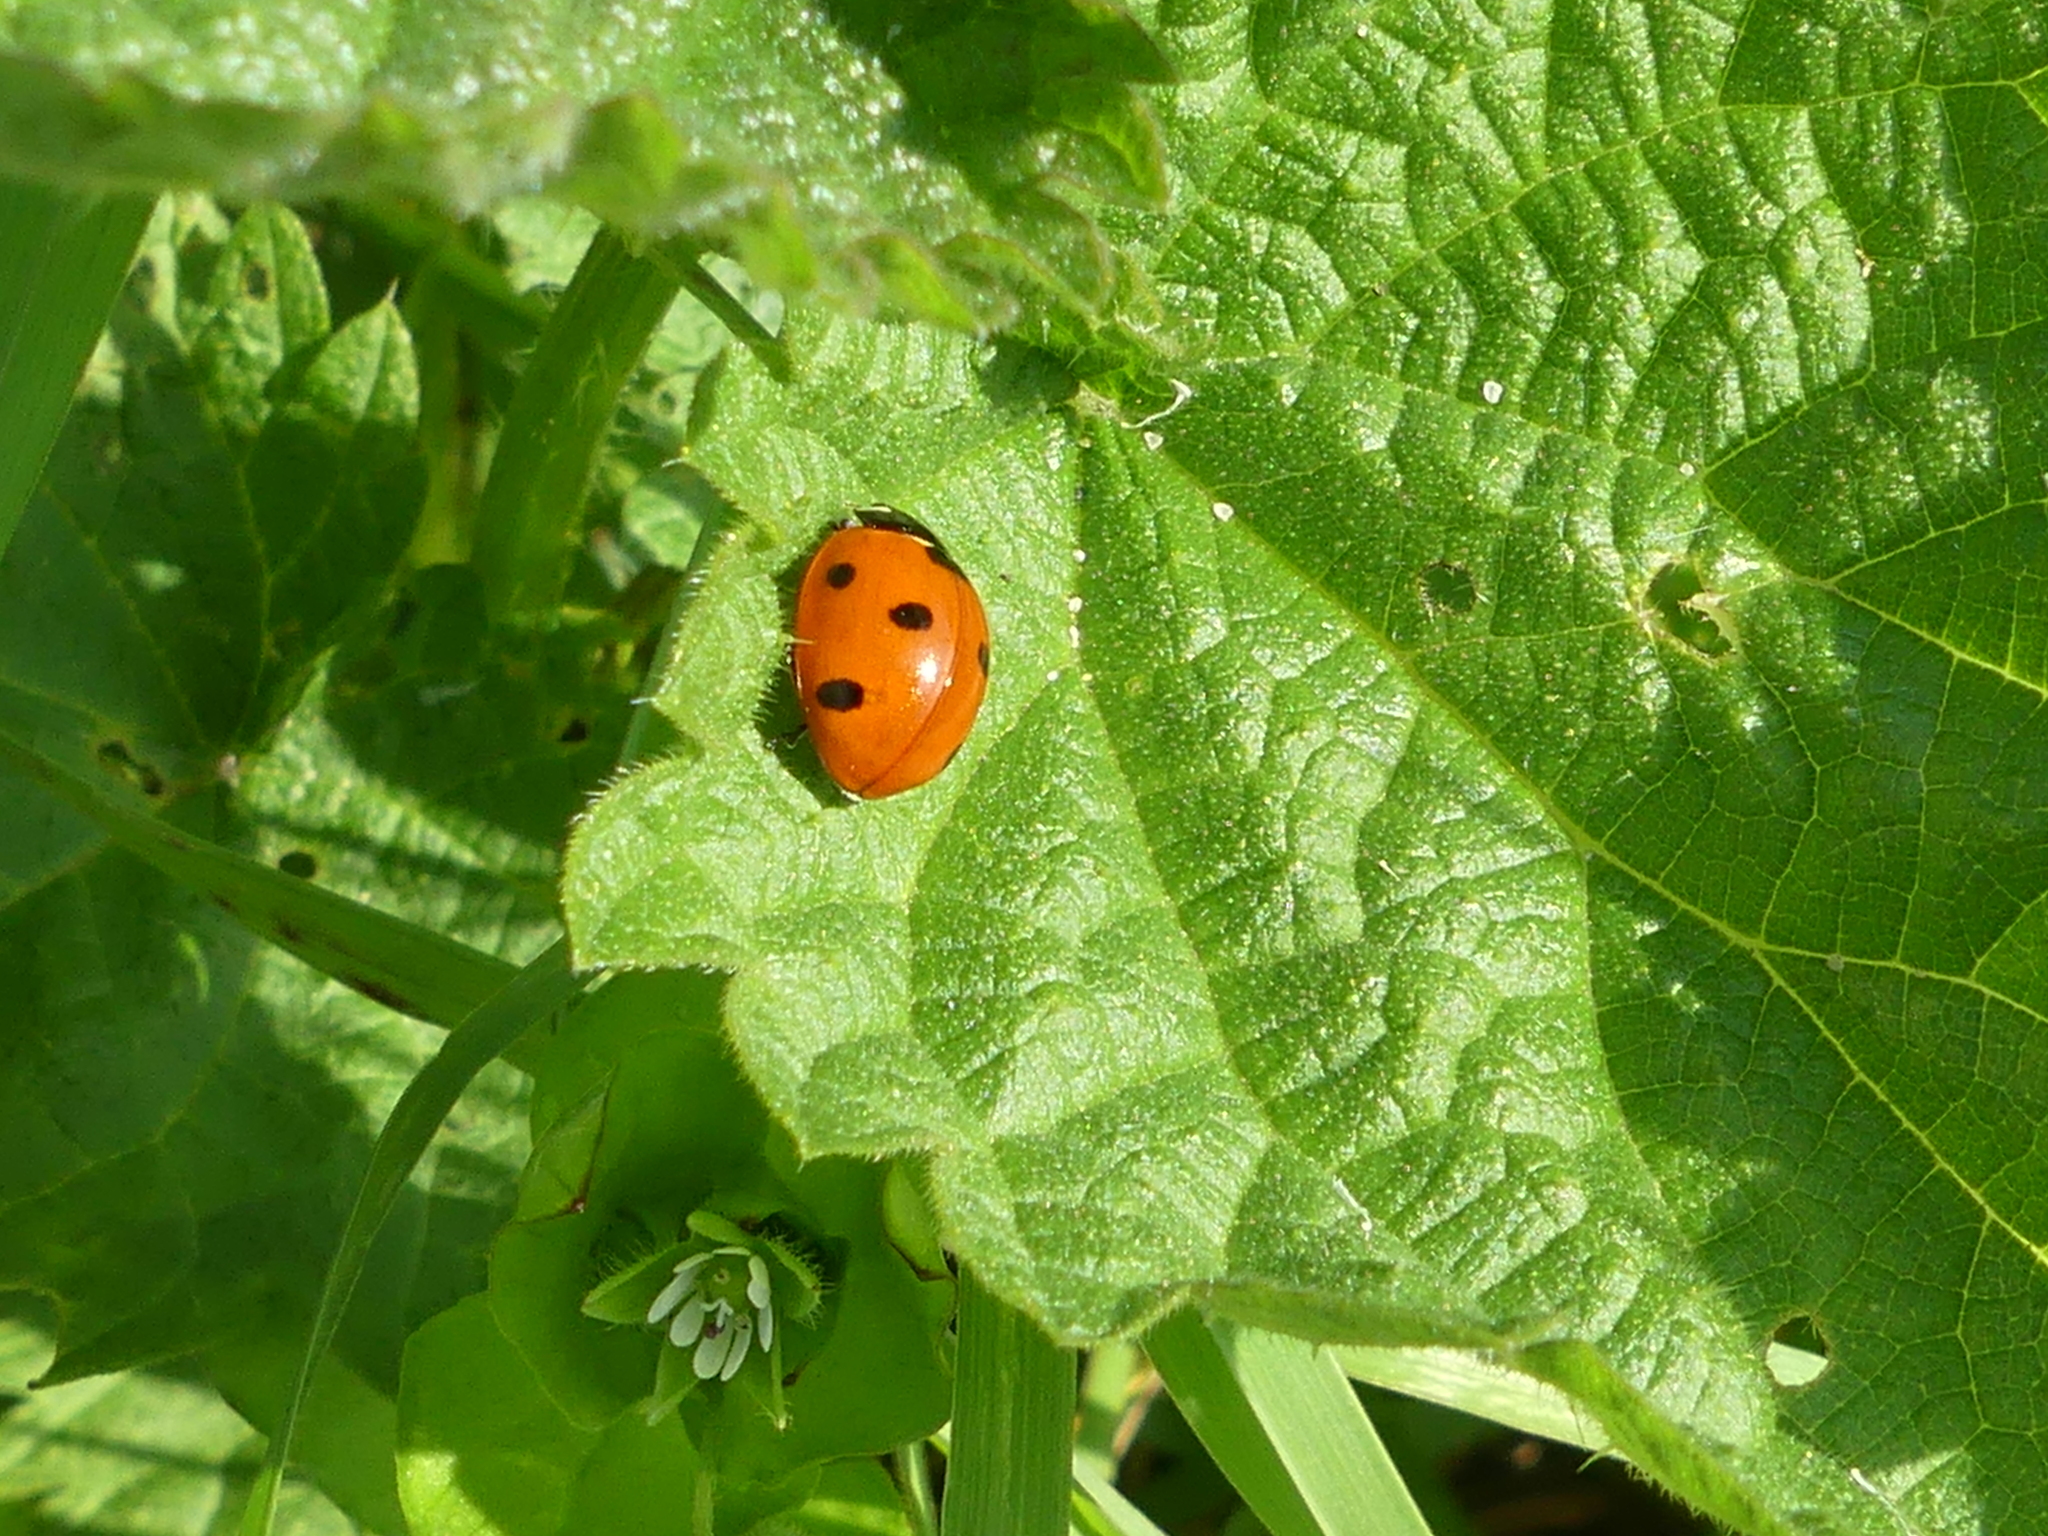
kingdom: Animalia
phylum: Arthropoda
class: Insecta
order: Coleoptera
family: Coccinellidae
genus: Coccinella
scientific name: Coccinella septempunctata
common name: Sevenspotted lady beetle
